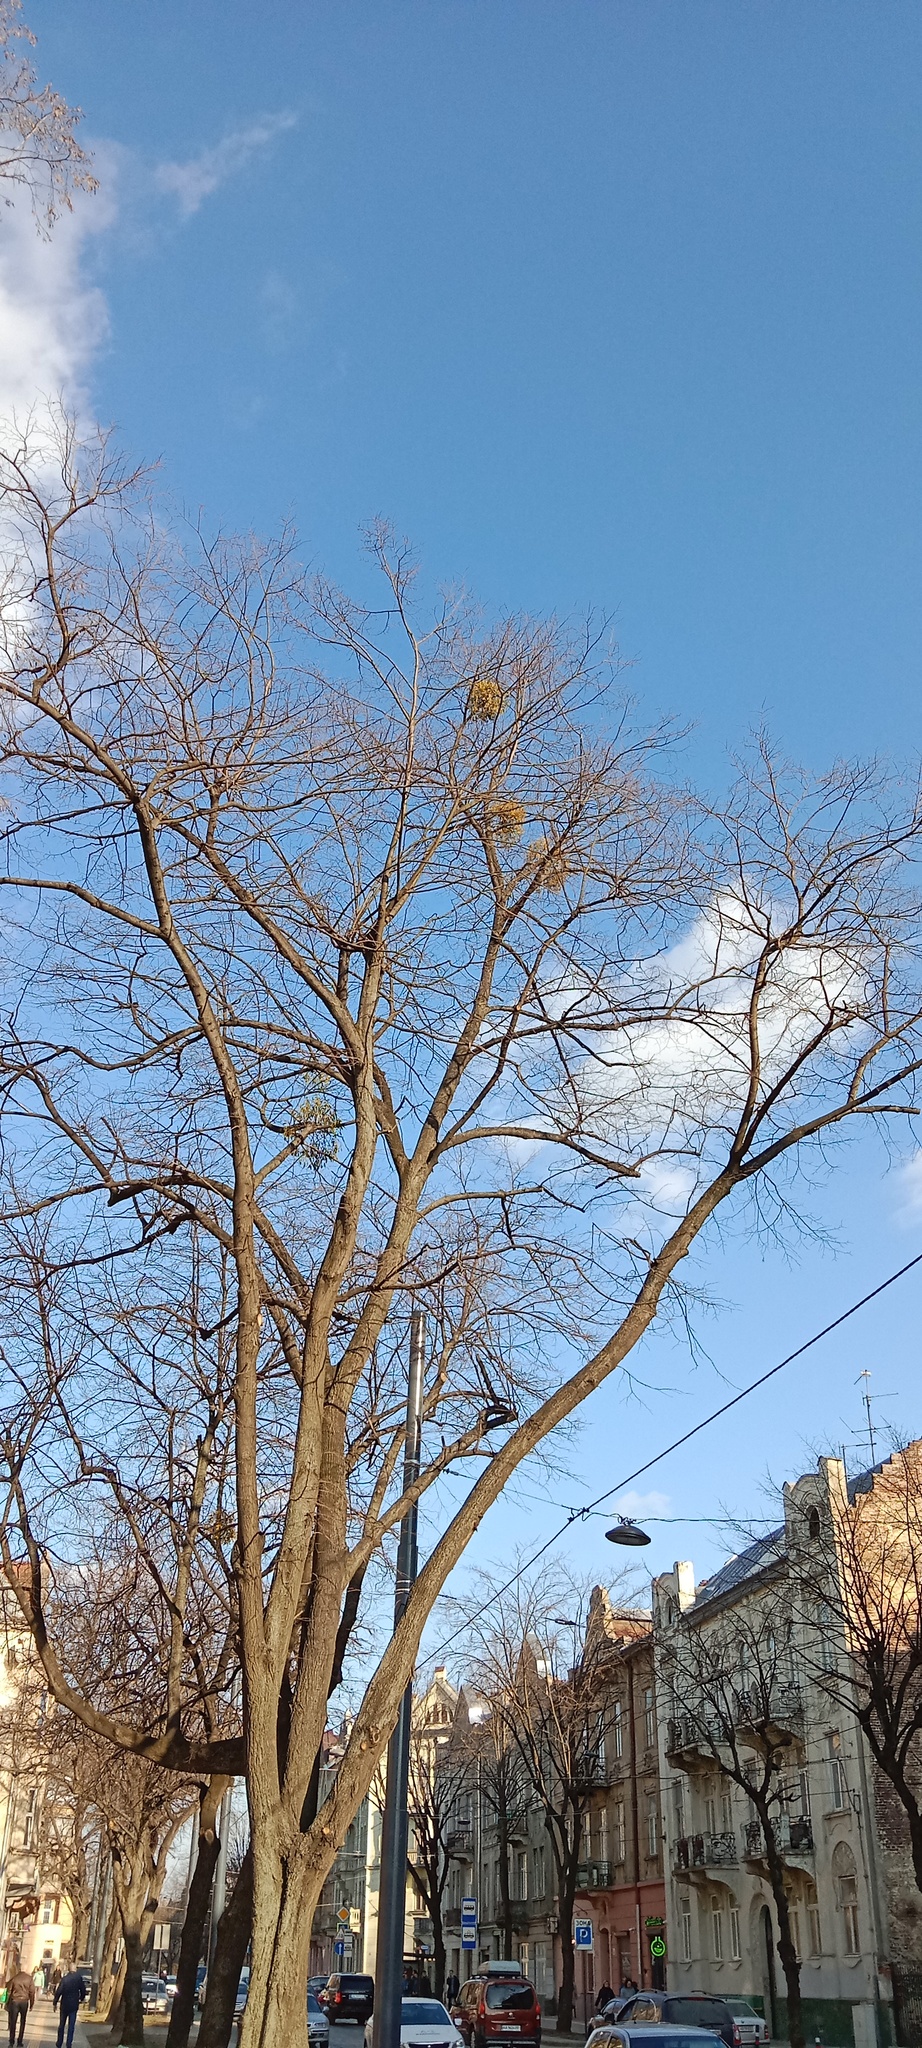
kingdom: Plantae
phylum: Tracheophyta
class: Magnoliopsida
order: Santalales
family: Viscaceae
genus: Viscum
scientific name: Viscum album
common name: Mistletoe
